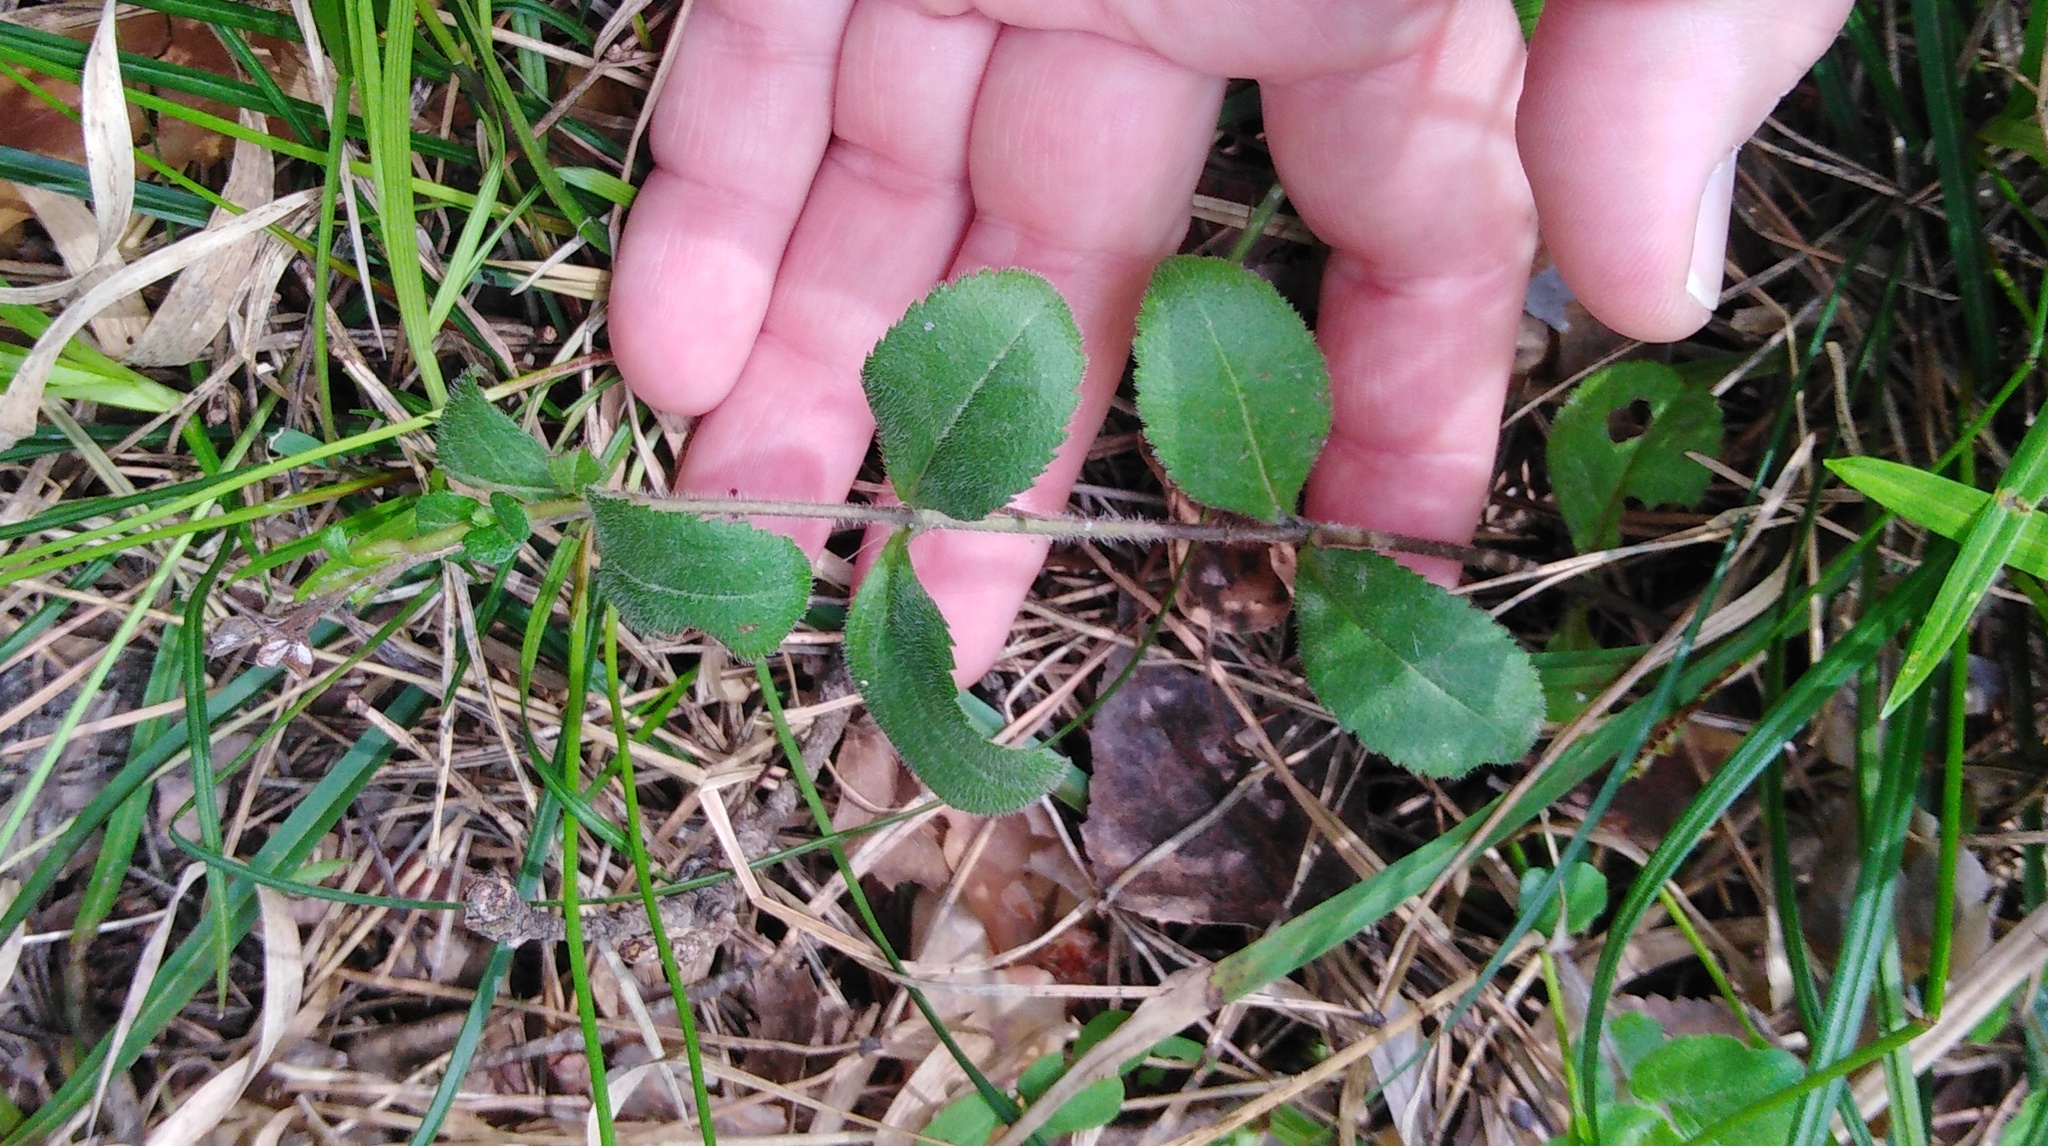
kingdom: Plantae
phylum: Tracheophyta
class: Magnoliopsida
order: Lamiales
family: Plantaginaceae
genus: Veronica
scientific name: Veronica officinalis
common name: Common speedwell
